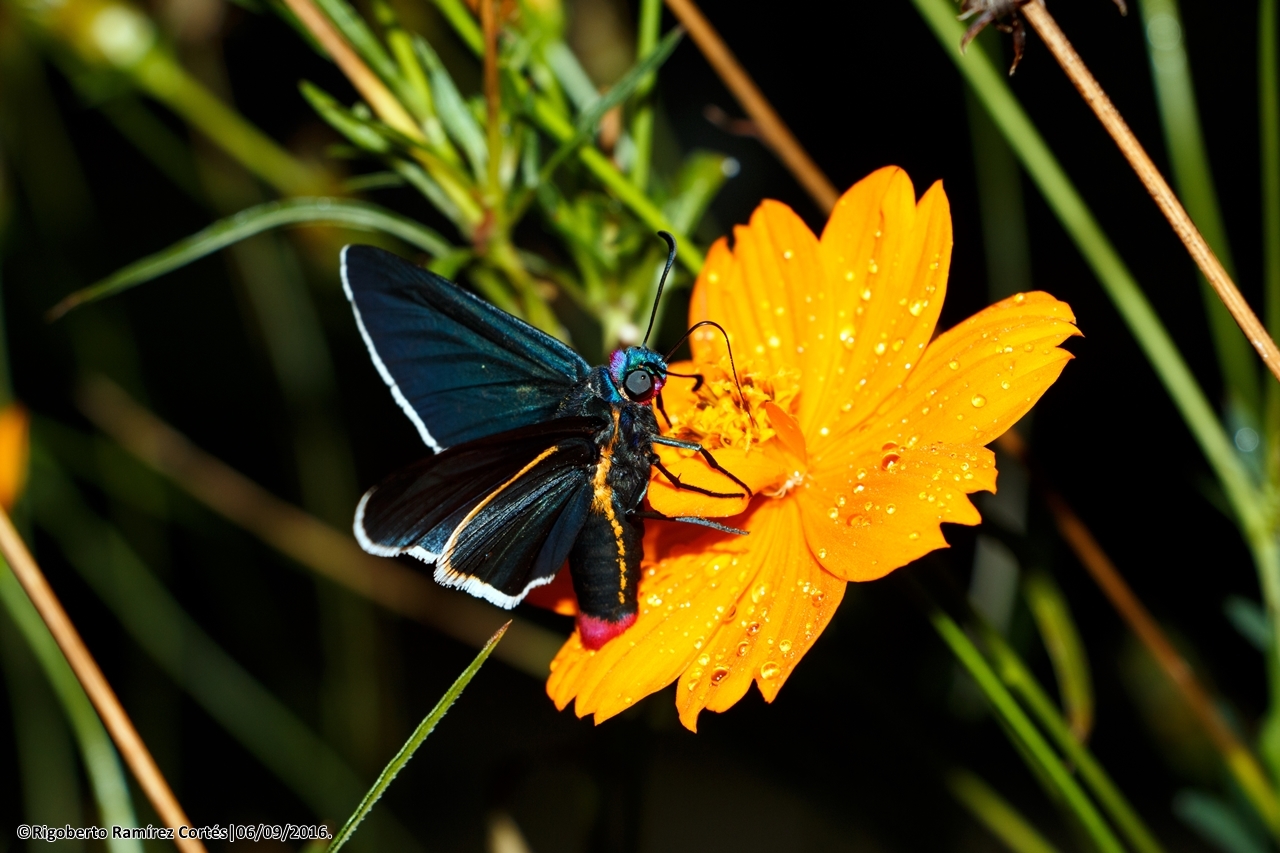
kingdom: Animalia
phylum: Arthropoda
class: Insecta
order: Lepidoptera
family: Hesperiidae
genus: Mysoria
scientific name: Mysoria affinis
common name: Red-collared firetip
